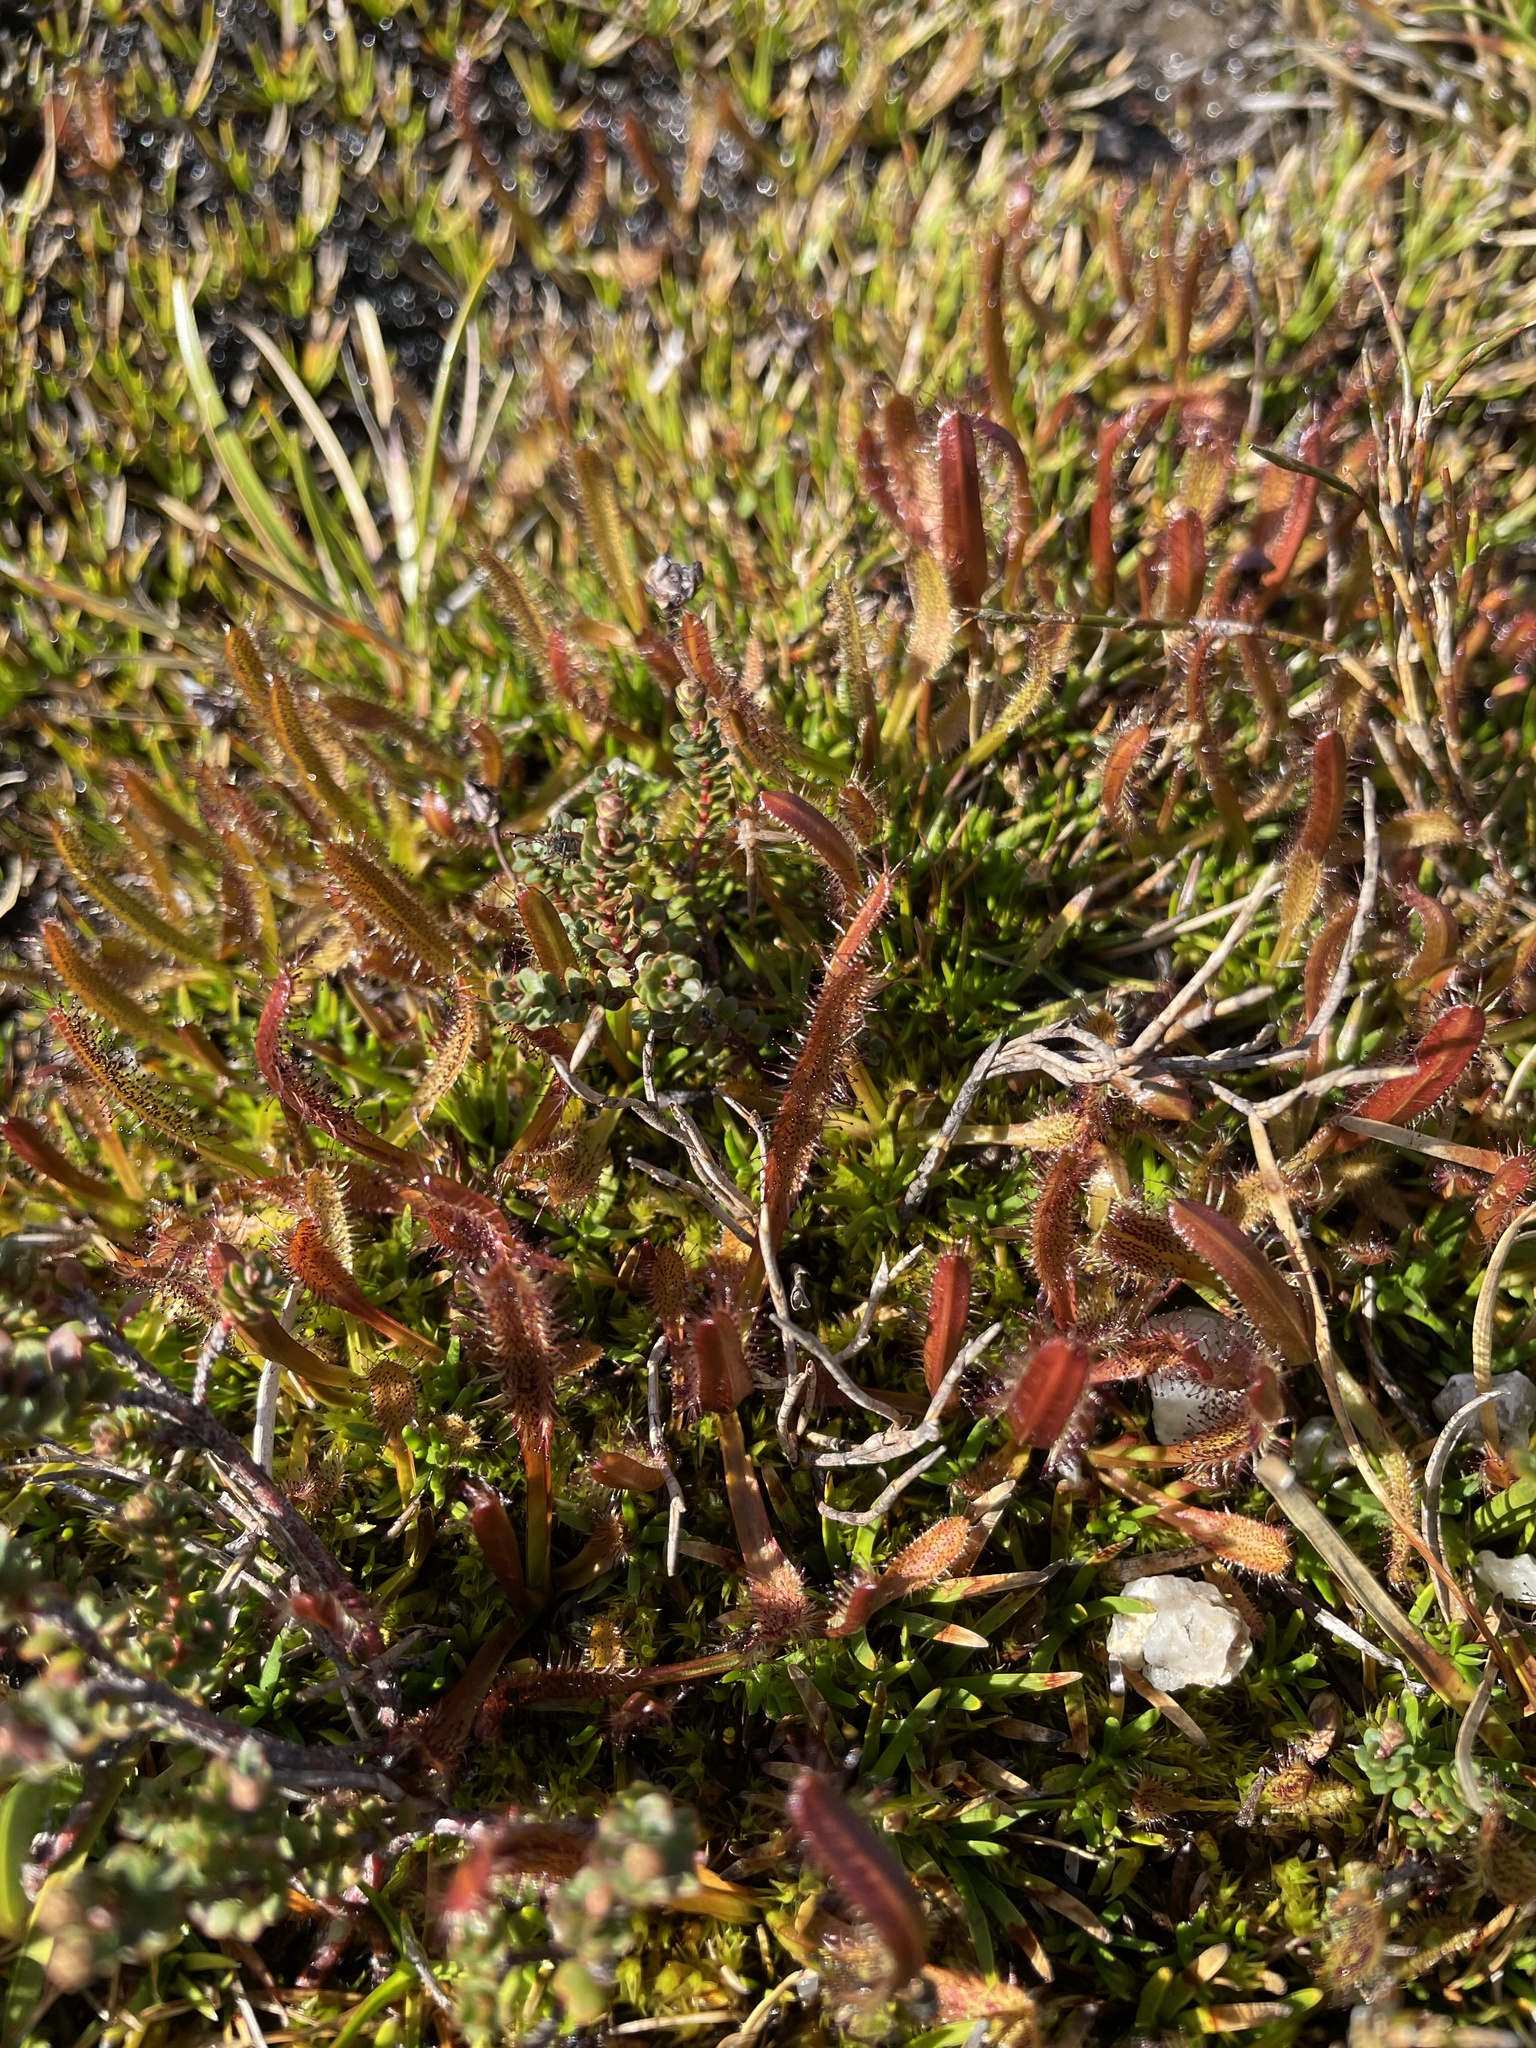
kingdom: Plantae
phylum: Tracheophyta
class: Magnoliopsida
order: Caryophyllales
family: Droseraceae
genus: Drosera
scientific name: Drosera arcturi
